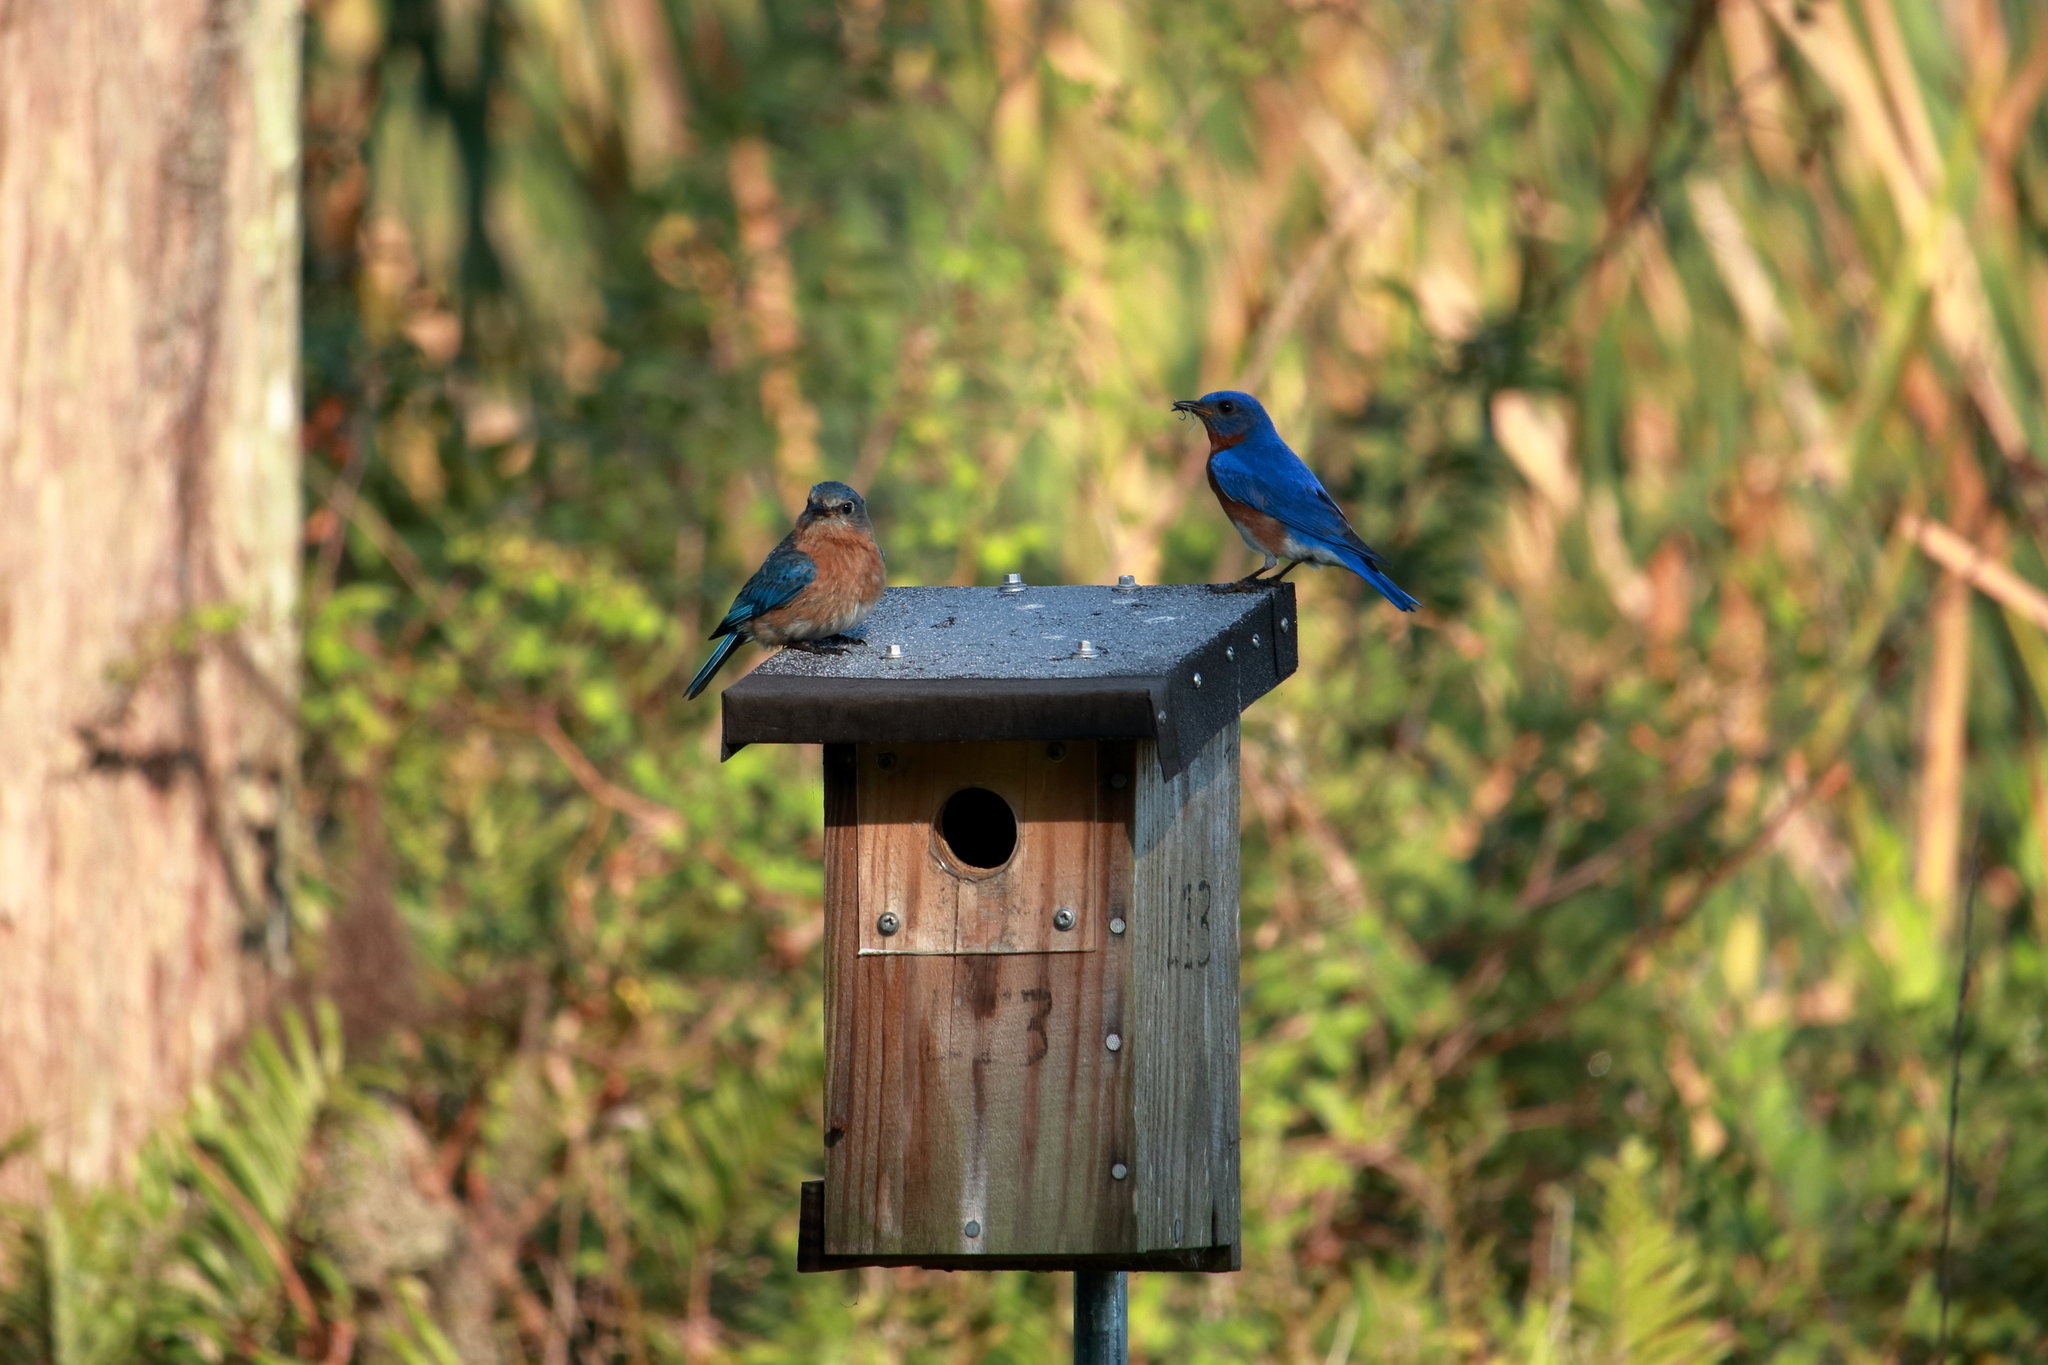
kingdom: Animalia
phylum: Chordata
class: Aves
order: Passeriformes
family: Turdidae
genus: Sialia
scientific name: Sialia sialis
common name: Eastern bluebird
